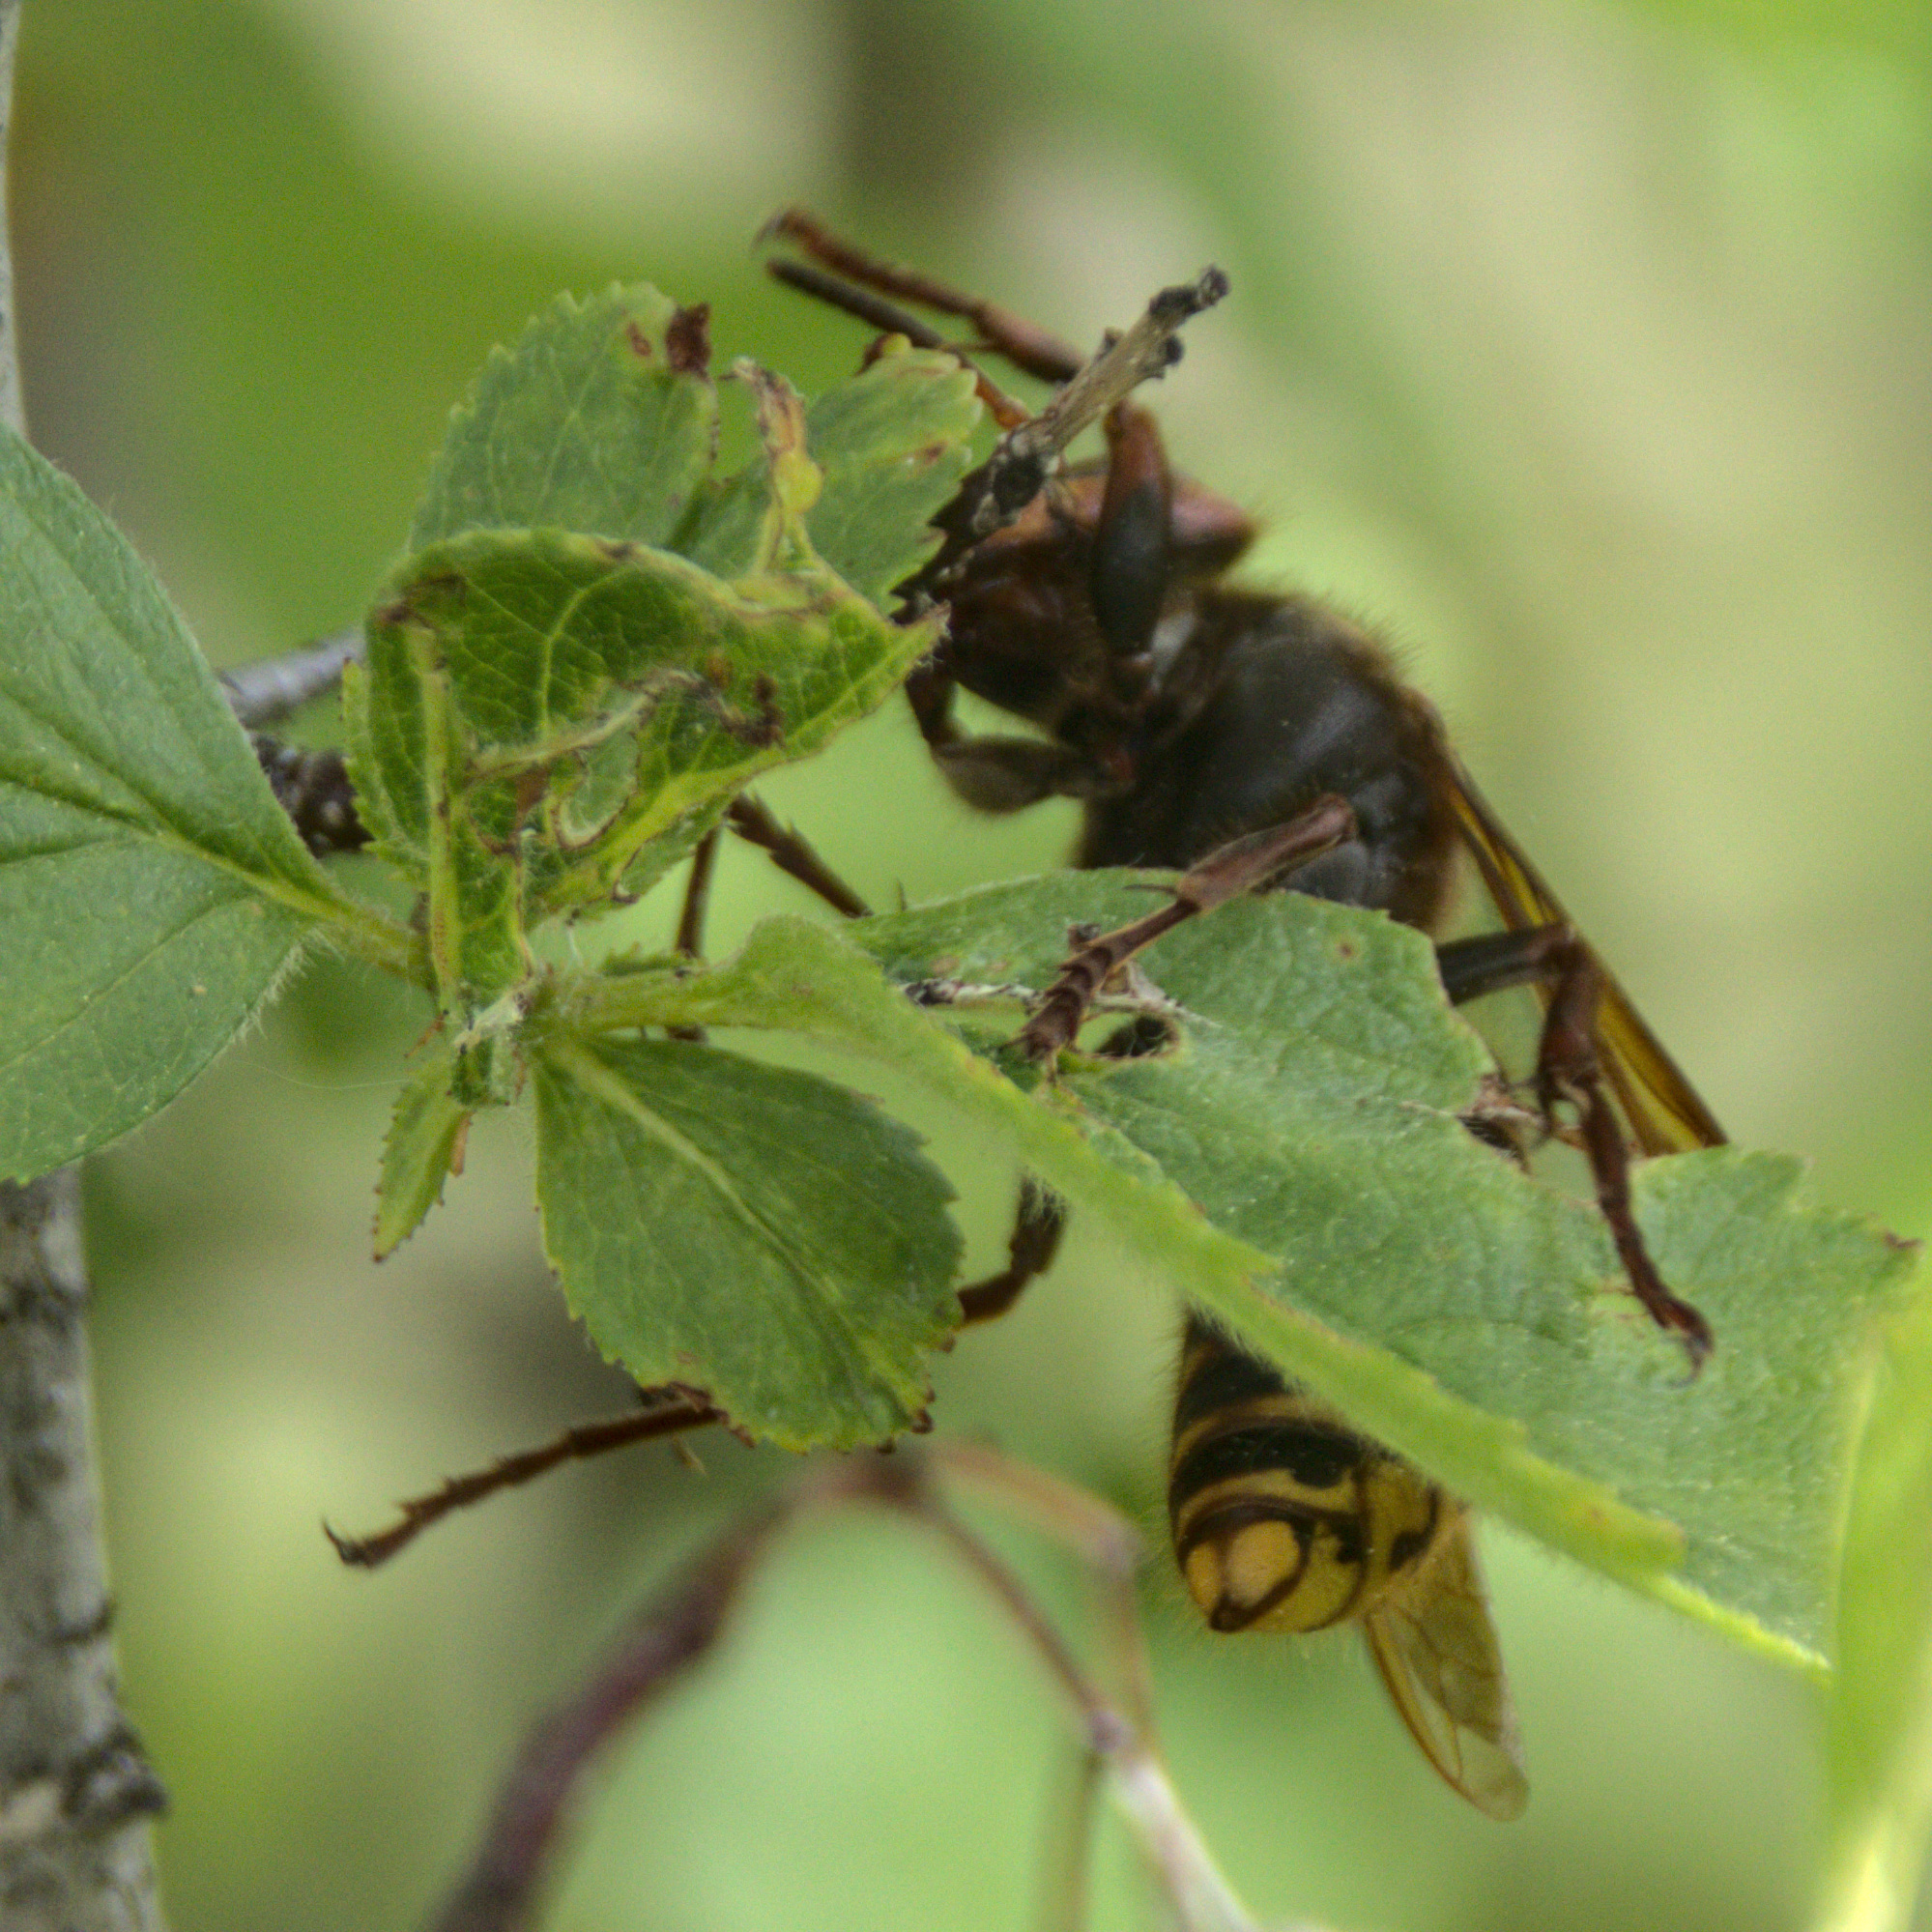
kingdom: Animalia
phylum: Arthropoda
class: Insecta
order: Hymenoptera
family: Vespidae
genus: Vespa
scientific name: Vespa crabro
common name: Hornet
